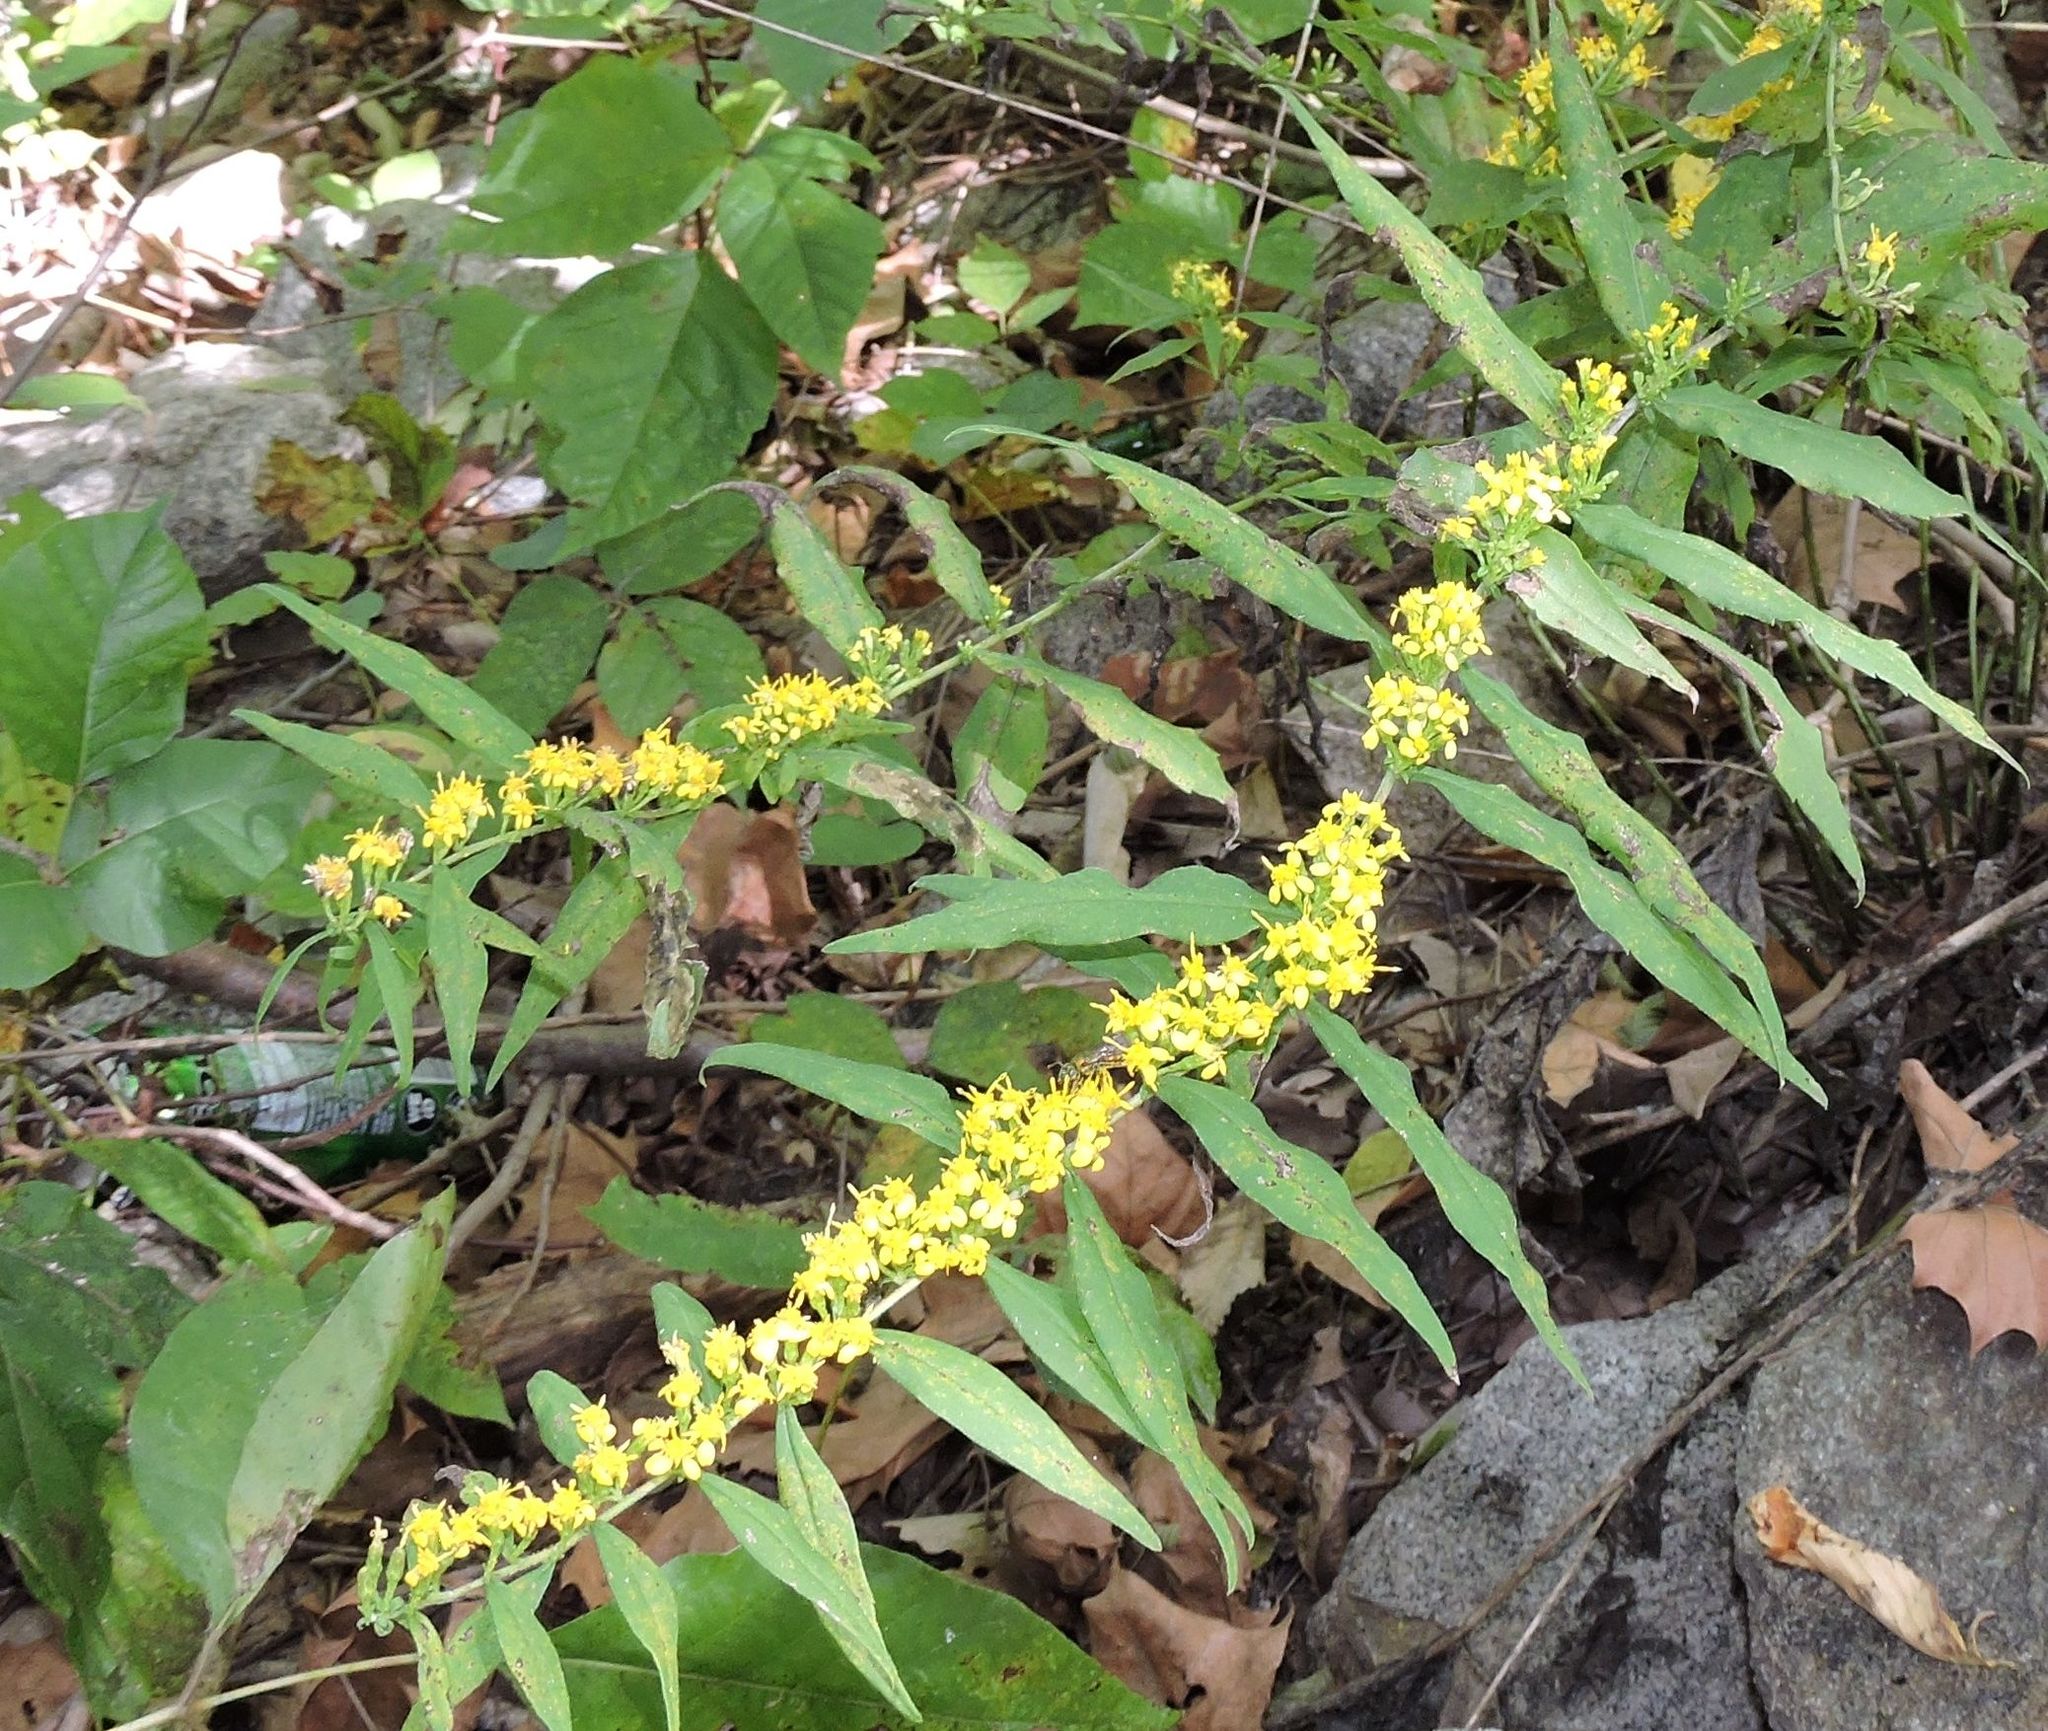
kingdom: Plantae
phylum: Tracheophyta
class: Magnoliopsida
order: Asterales
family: Asteraceae
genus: Solidago
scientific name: Solidago caesia
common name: Woodland goldenrod
